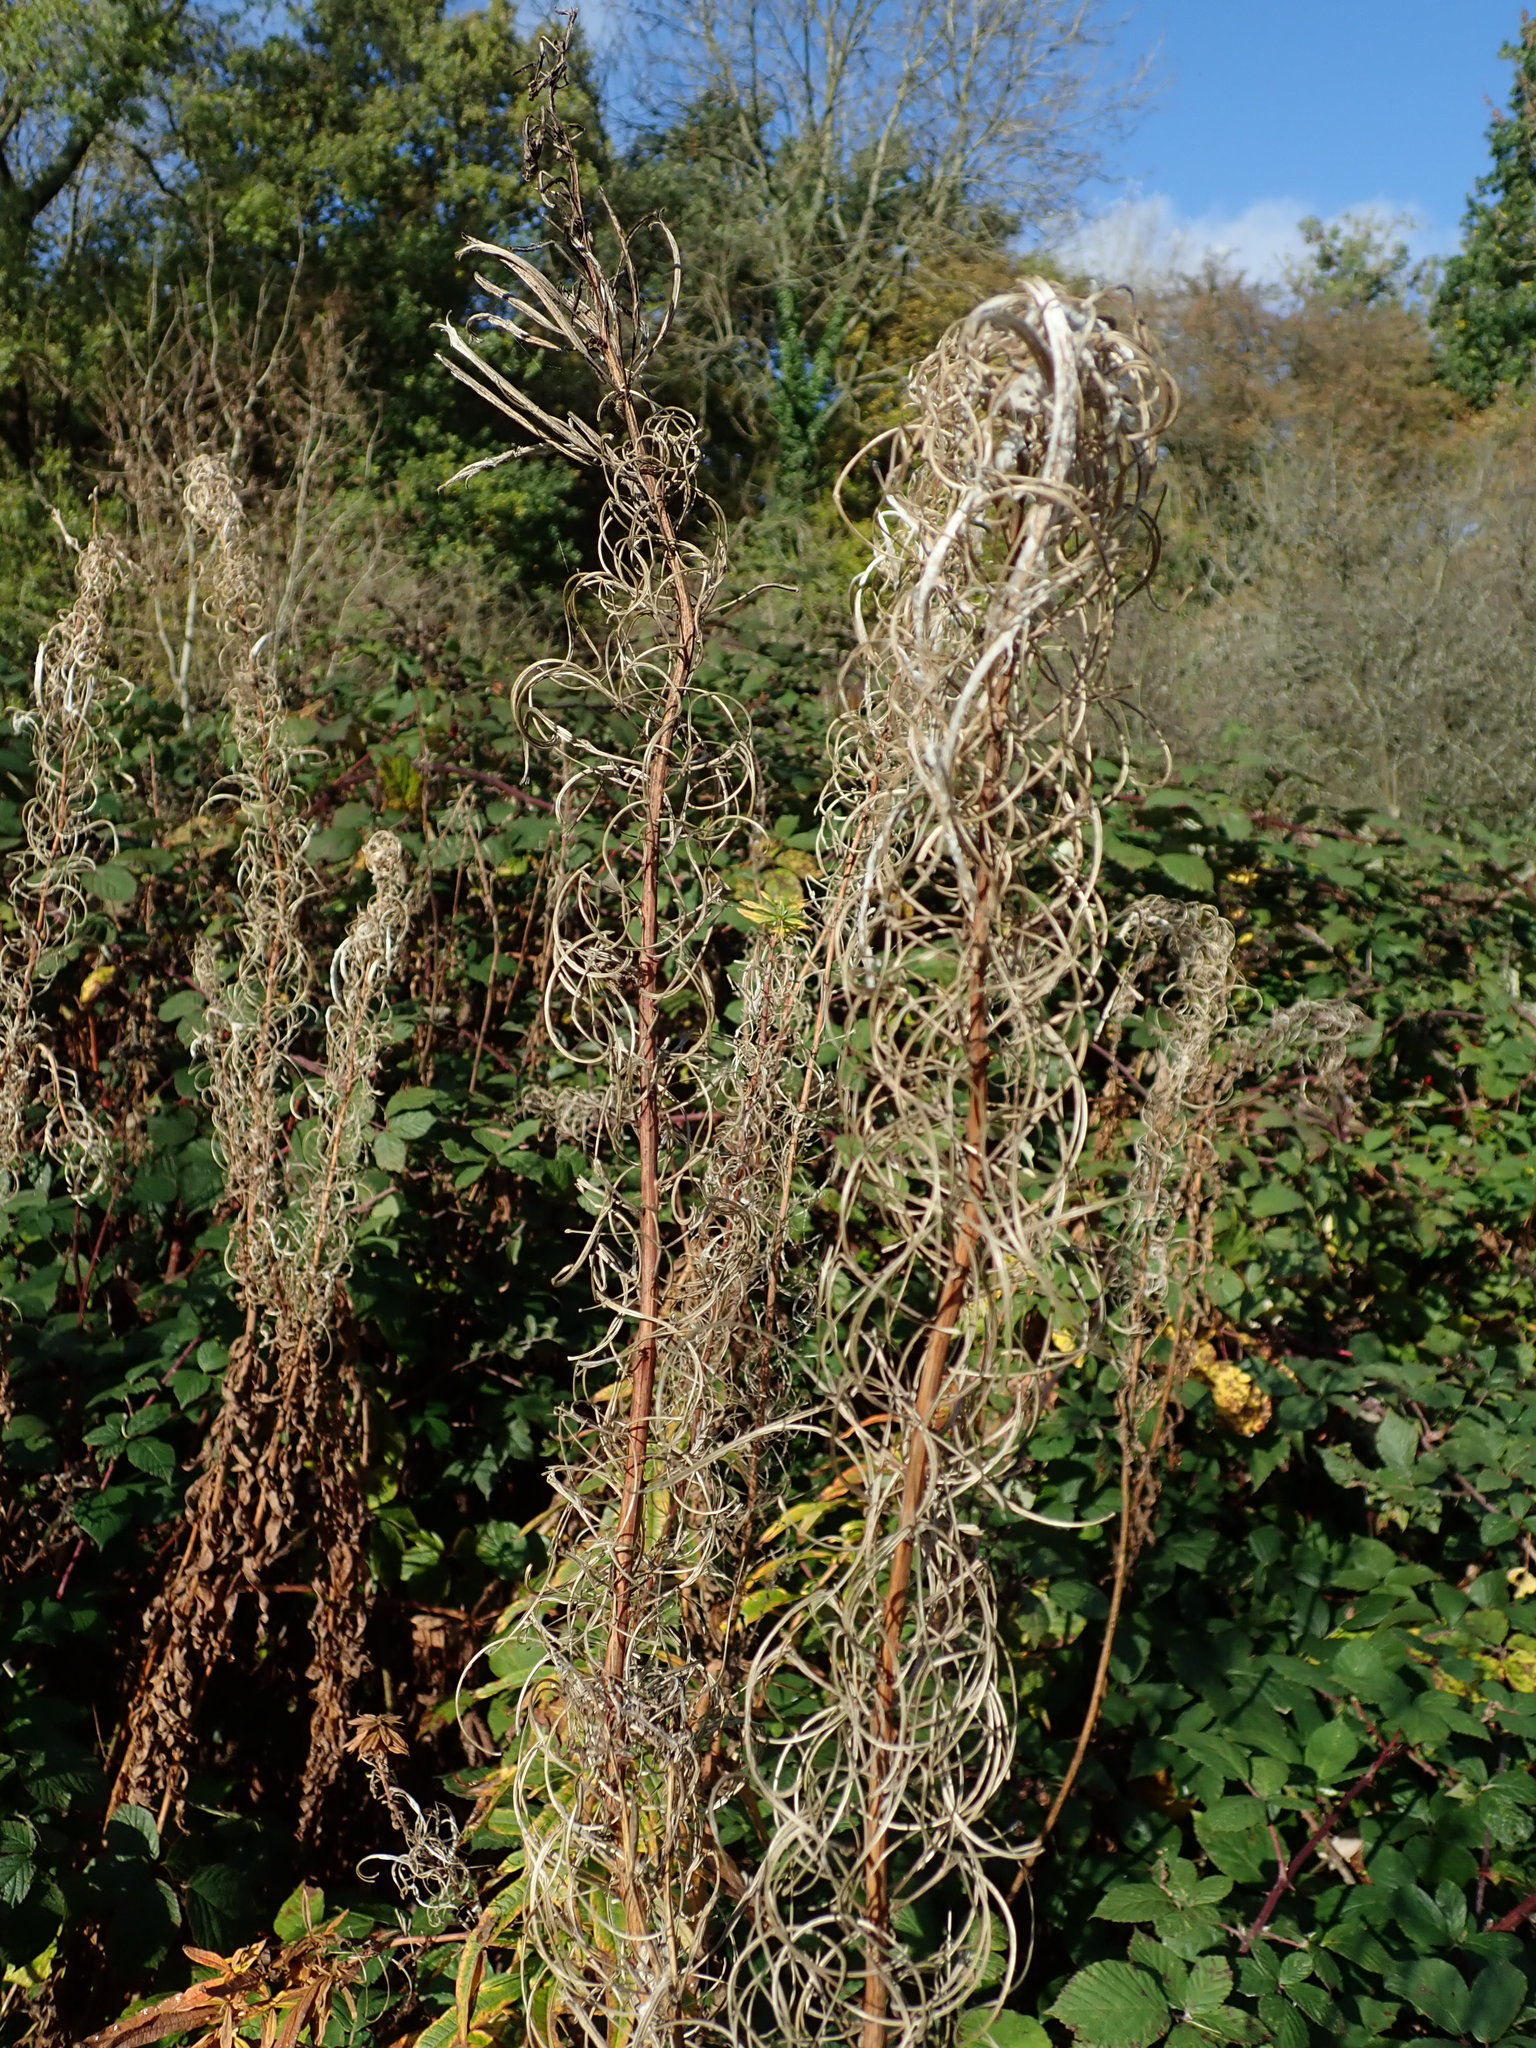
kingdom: Plantae
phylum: Tracheophyta
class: Magnoliopsida
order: Myrtales
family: Onagraceae
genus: Chamaenerion
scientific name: Chamaenerion angustifolium
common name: Fireweed
